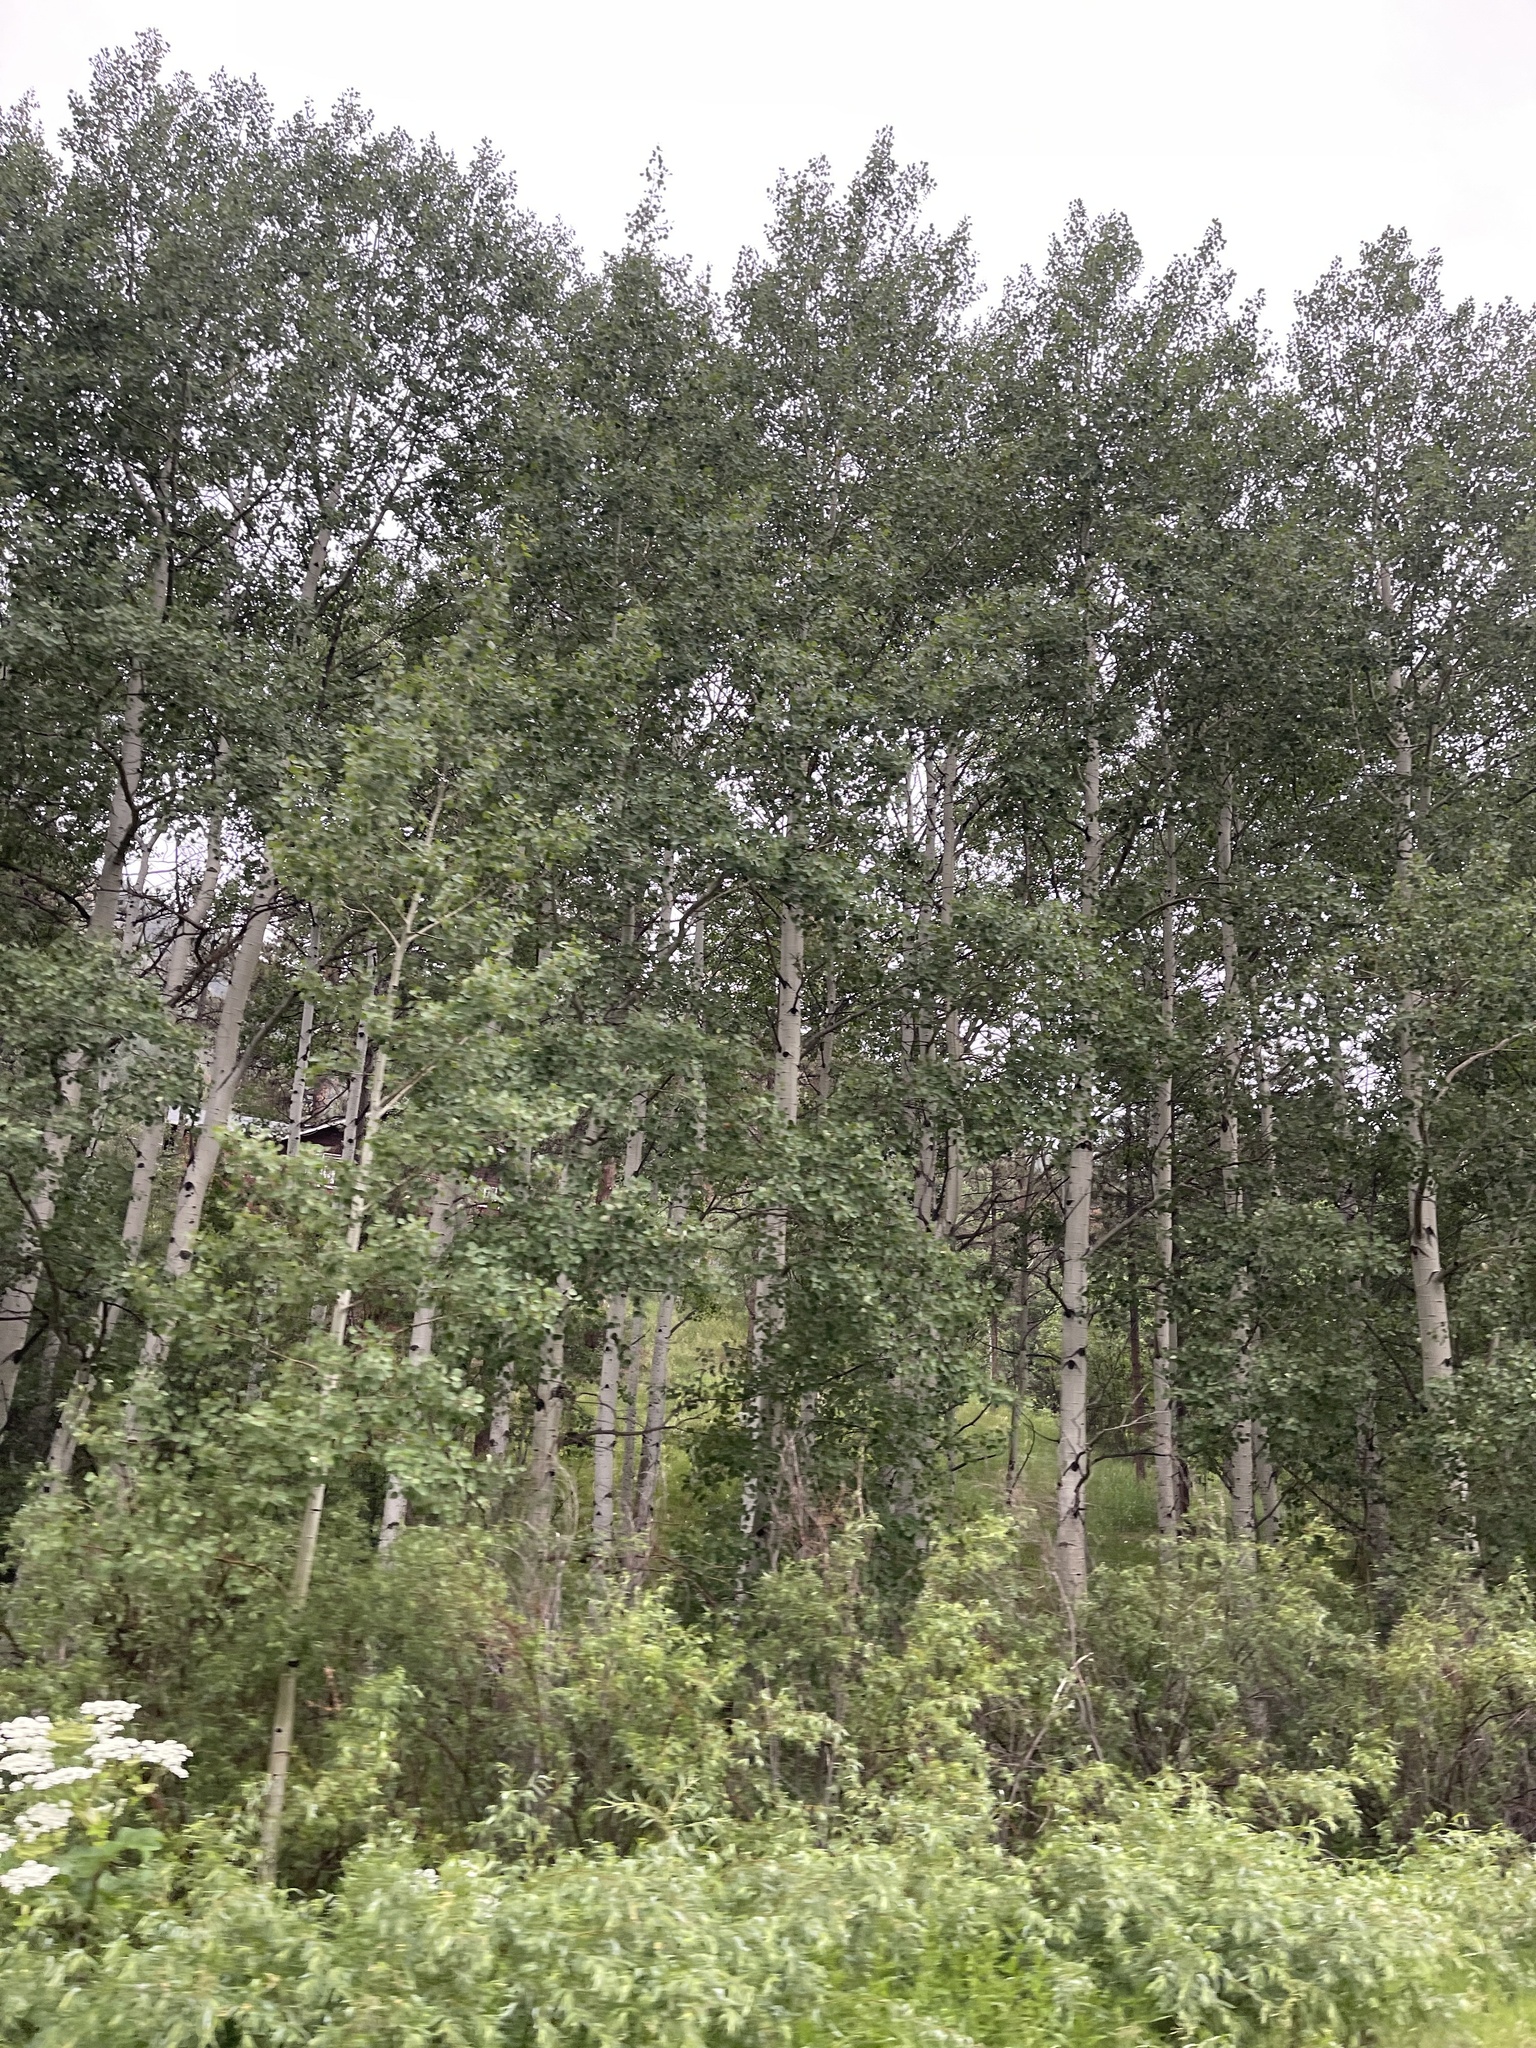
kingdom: Plantae
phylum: Tracheophyta
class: Magnoliopsida
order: Malpighiales
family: Salicaceae
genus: Populus
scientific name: Populus tremuloides
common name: Quaking aspen
